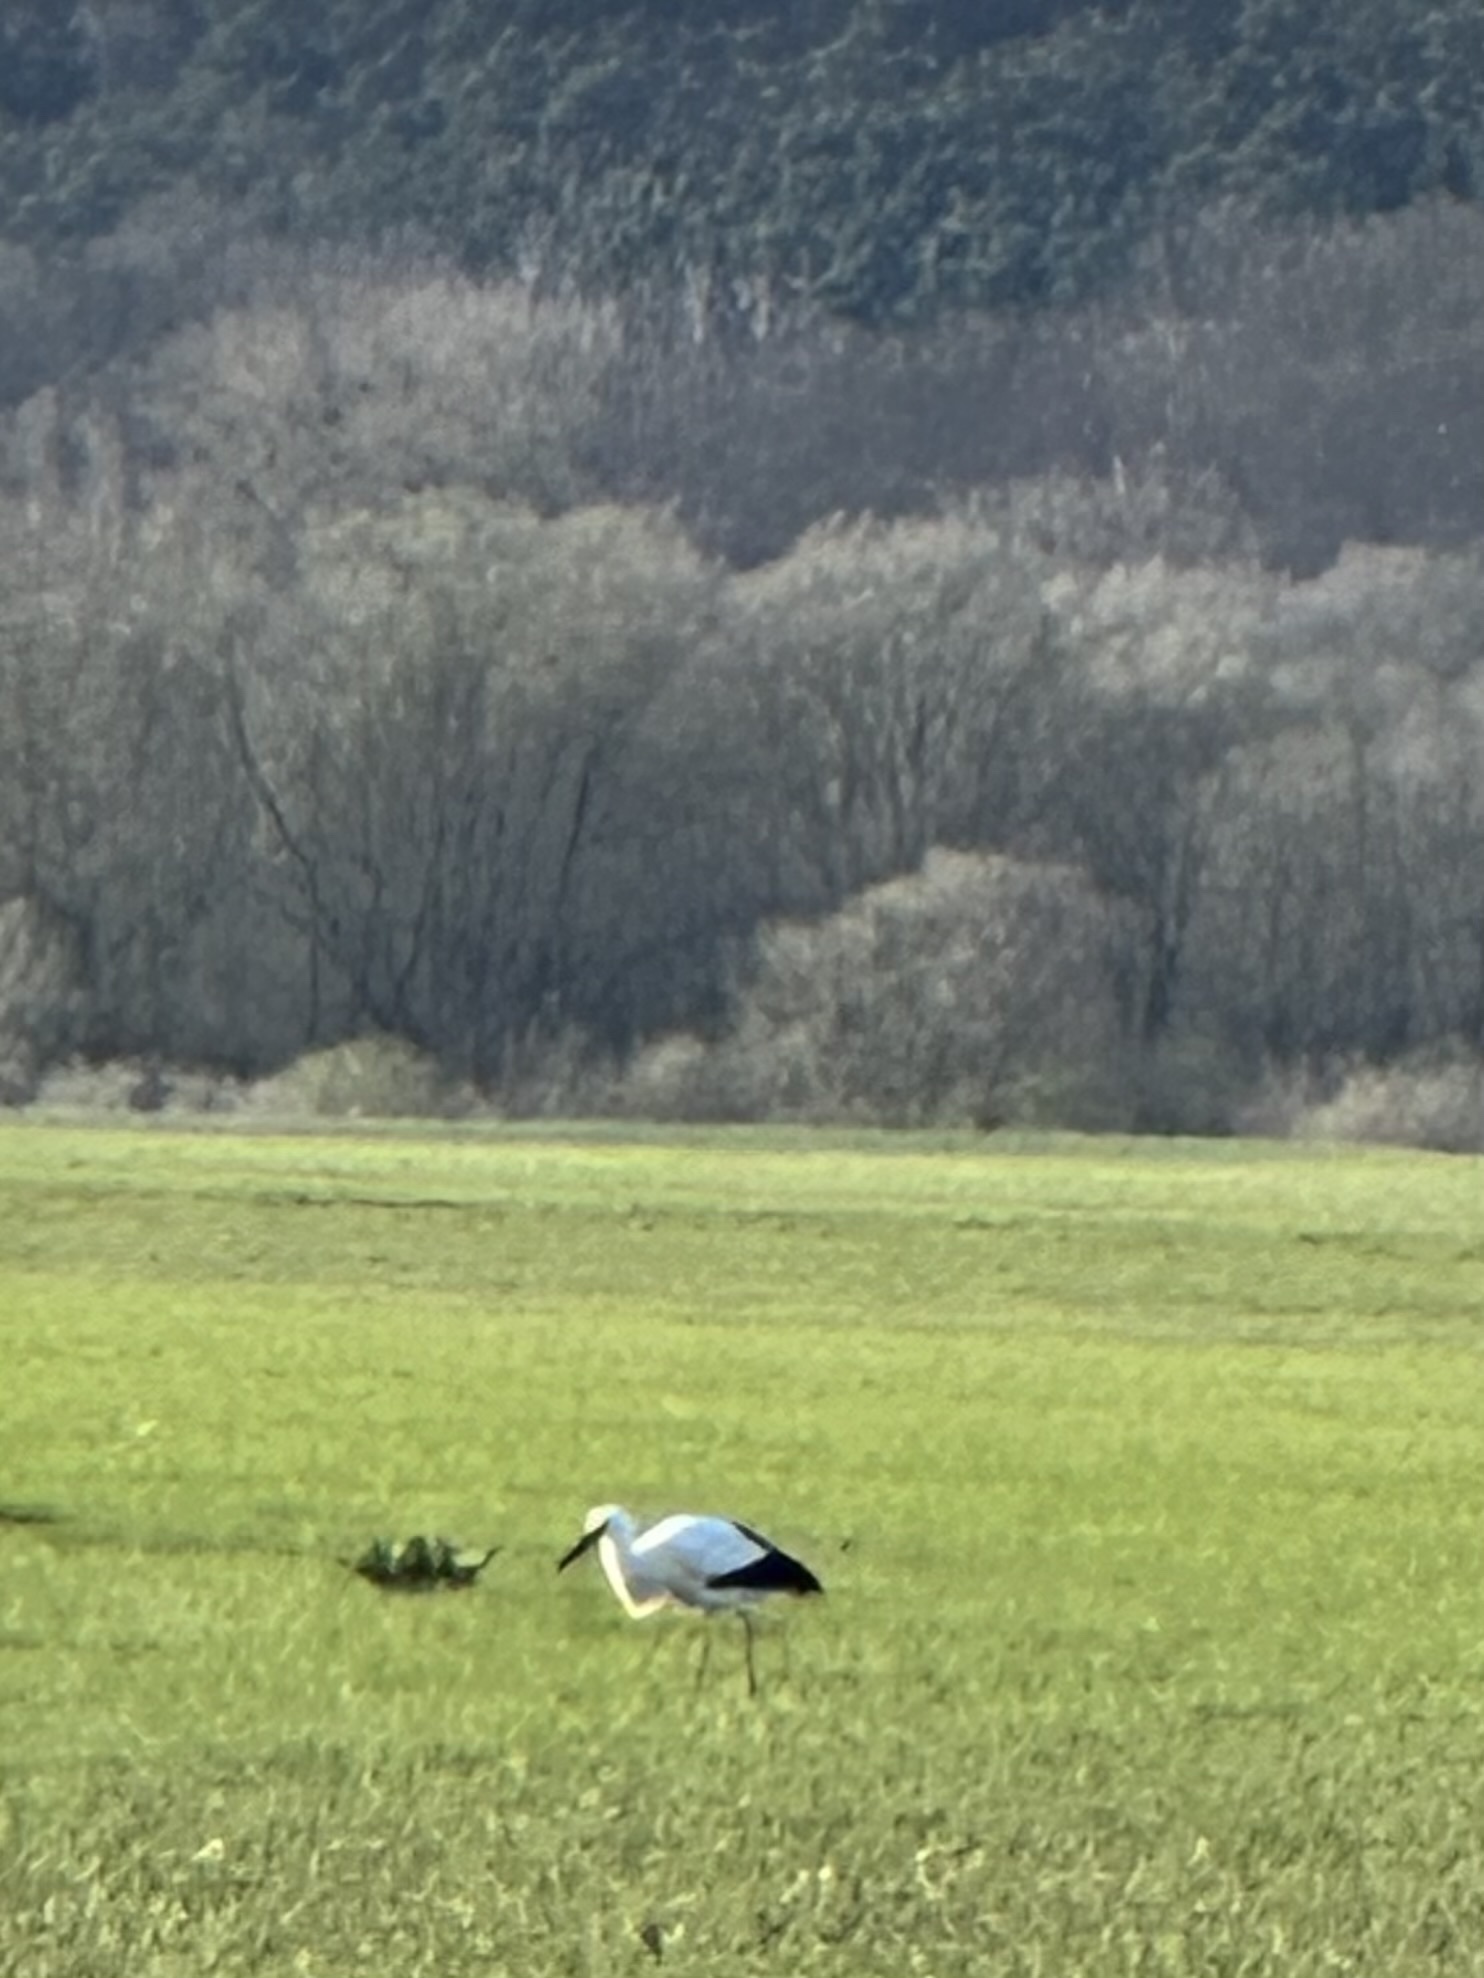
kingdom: Animalia
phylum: Chordata
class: Aves
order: Ciconiiformes
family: Ciconiidae
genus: Ciconia
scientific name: Ciconia ciconia
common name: White stork
